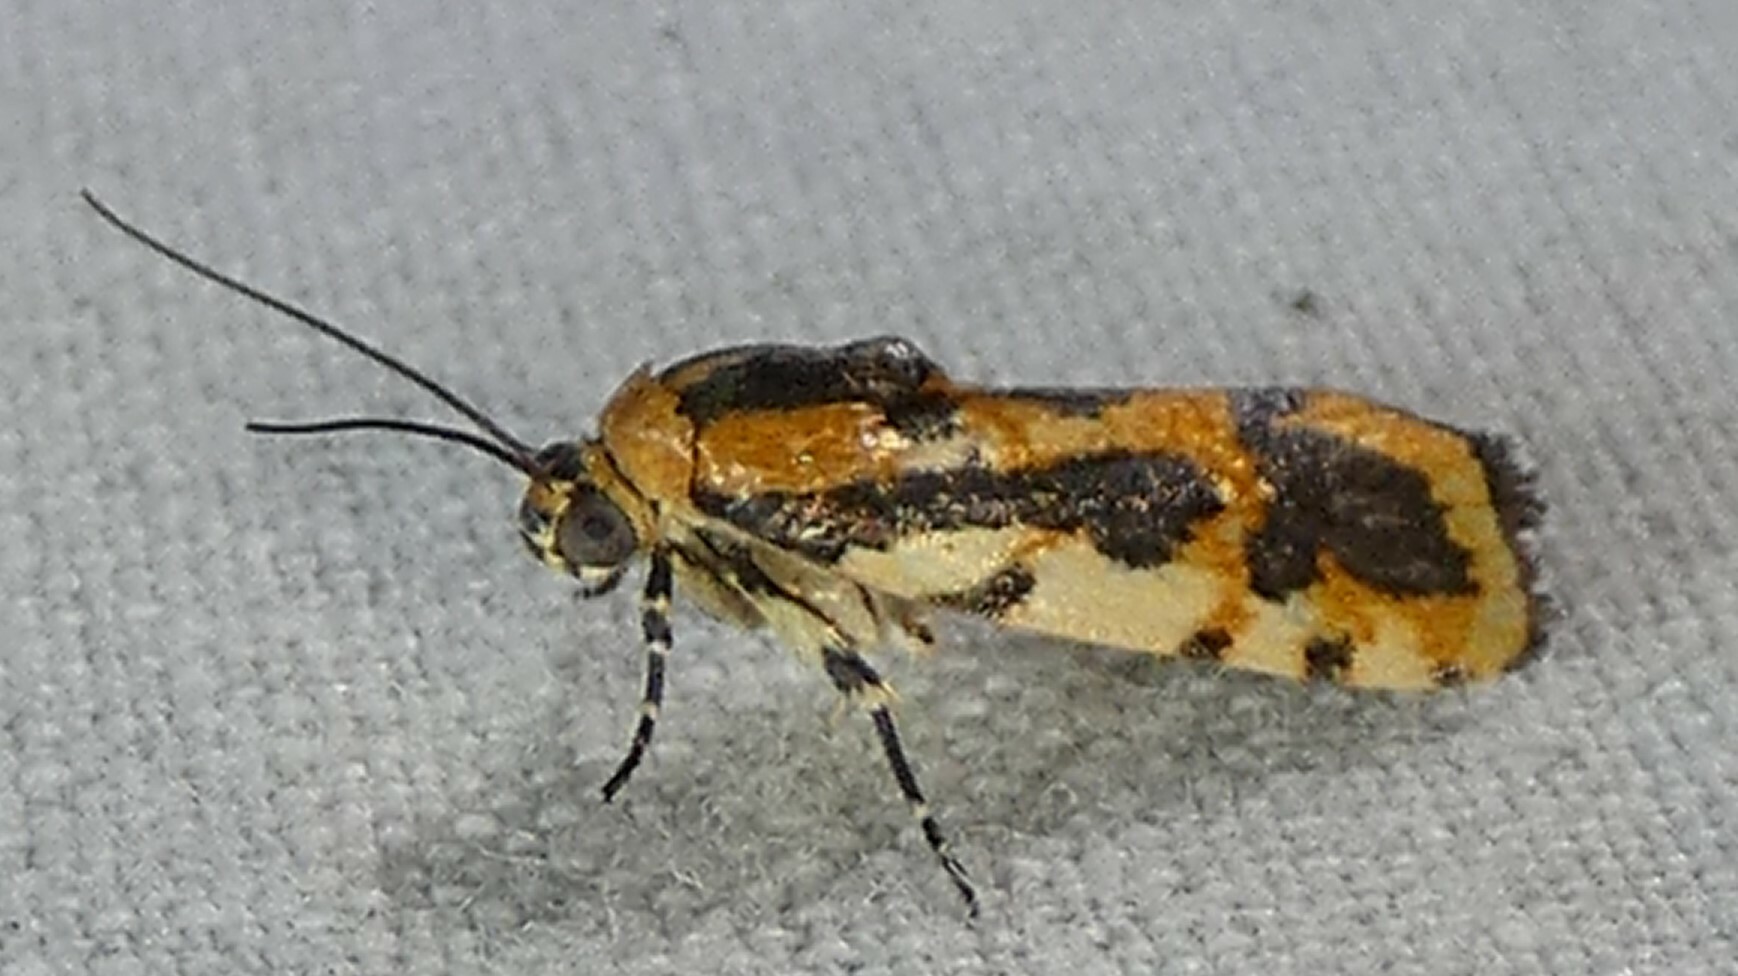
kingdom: Animalia
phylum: Arthropoda
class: Insecta
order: Lepidoptera
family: Noctuidae
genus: Acontia
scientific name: Acontia leo
